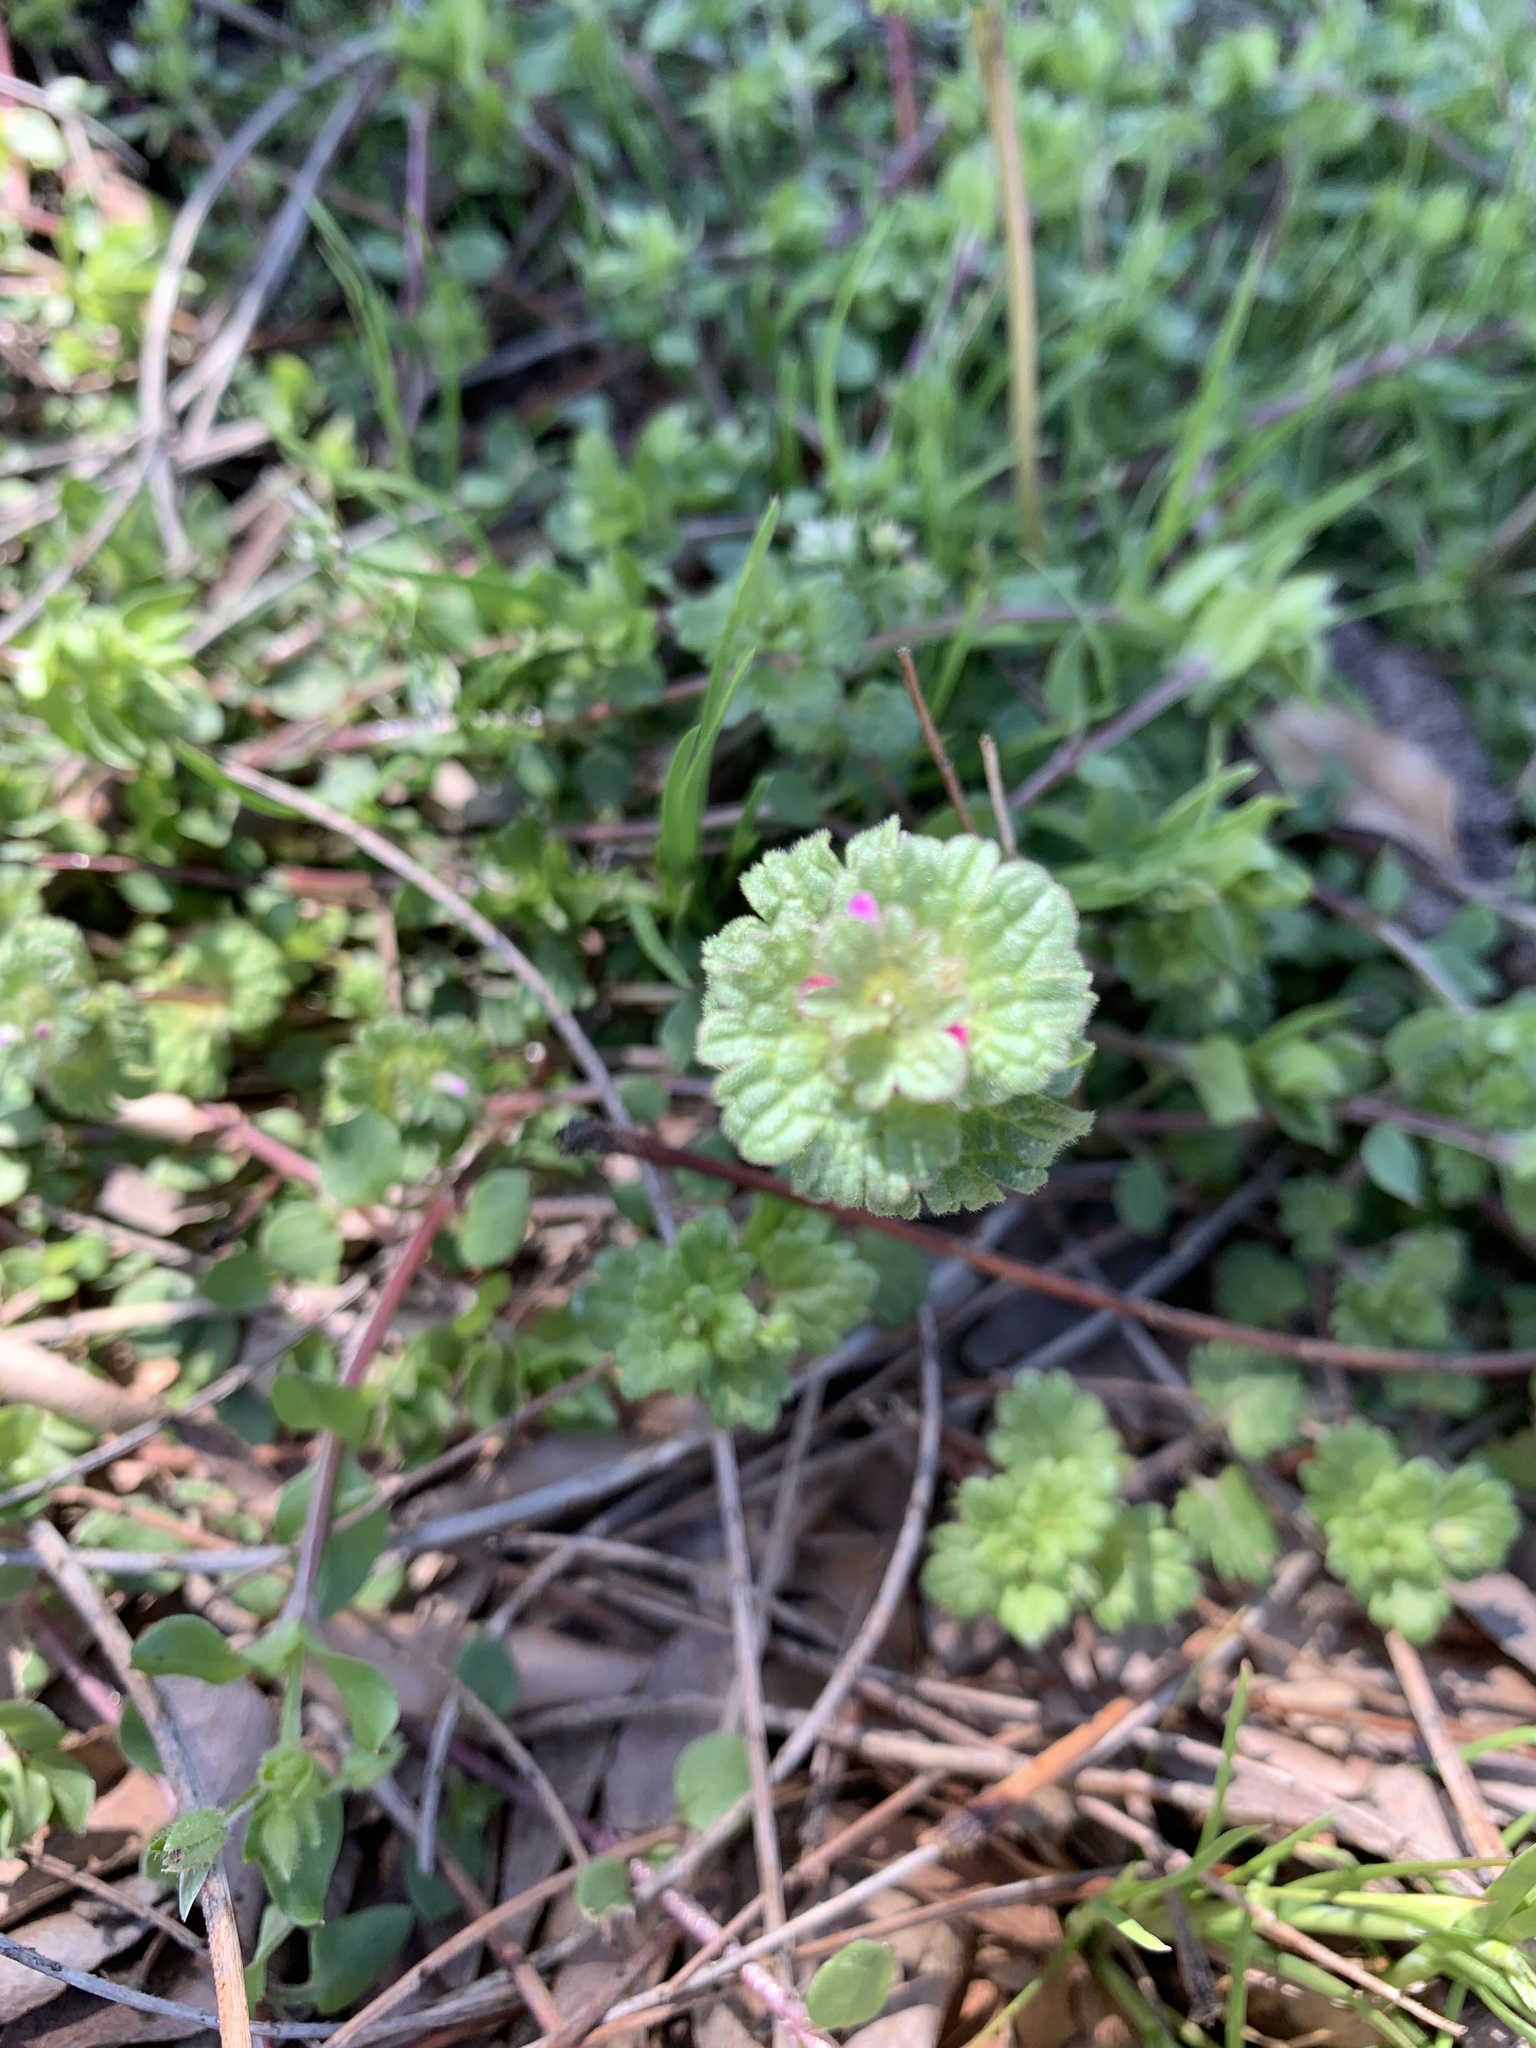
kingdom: Plantae
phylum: Tracheophyta
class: Magnoliopsida
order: Lamiales
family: Lamiaceae
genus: Lamium
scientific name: Lamium amplexicaule
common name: Henbit dead-nettle
